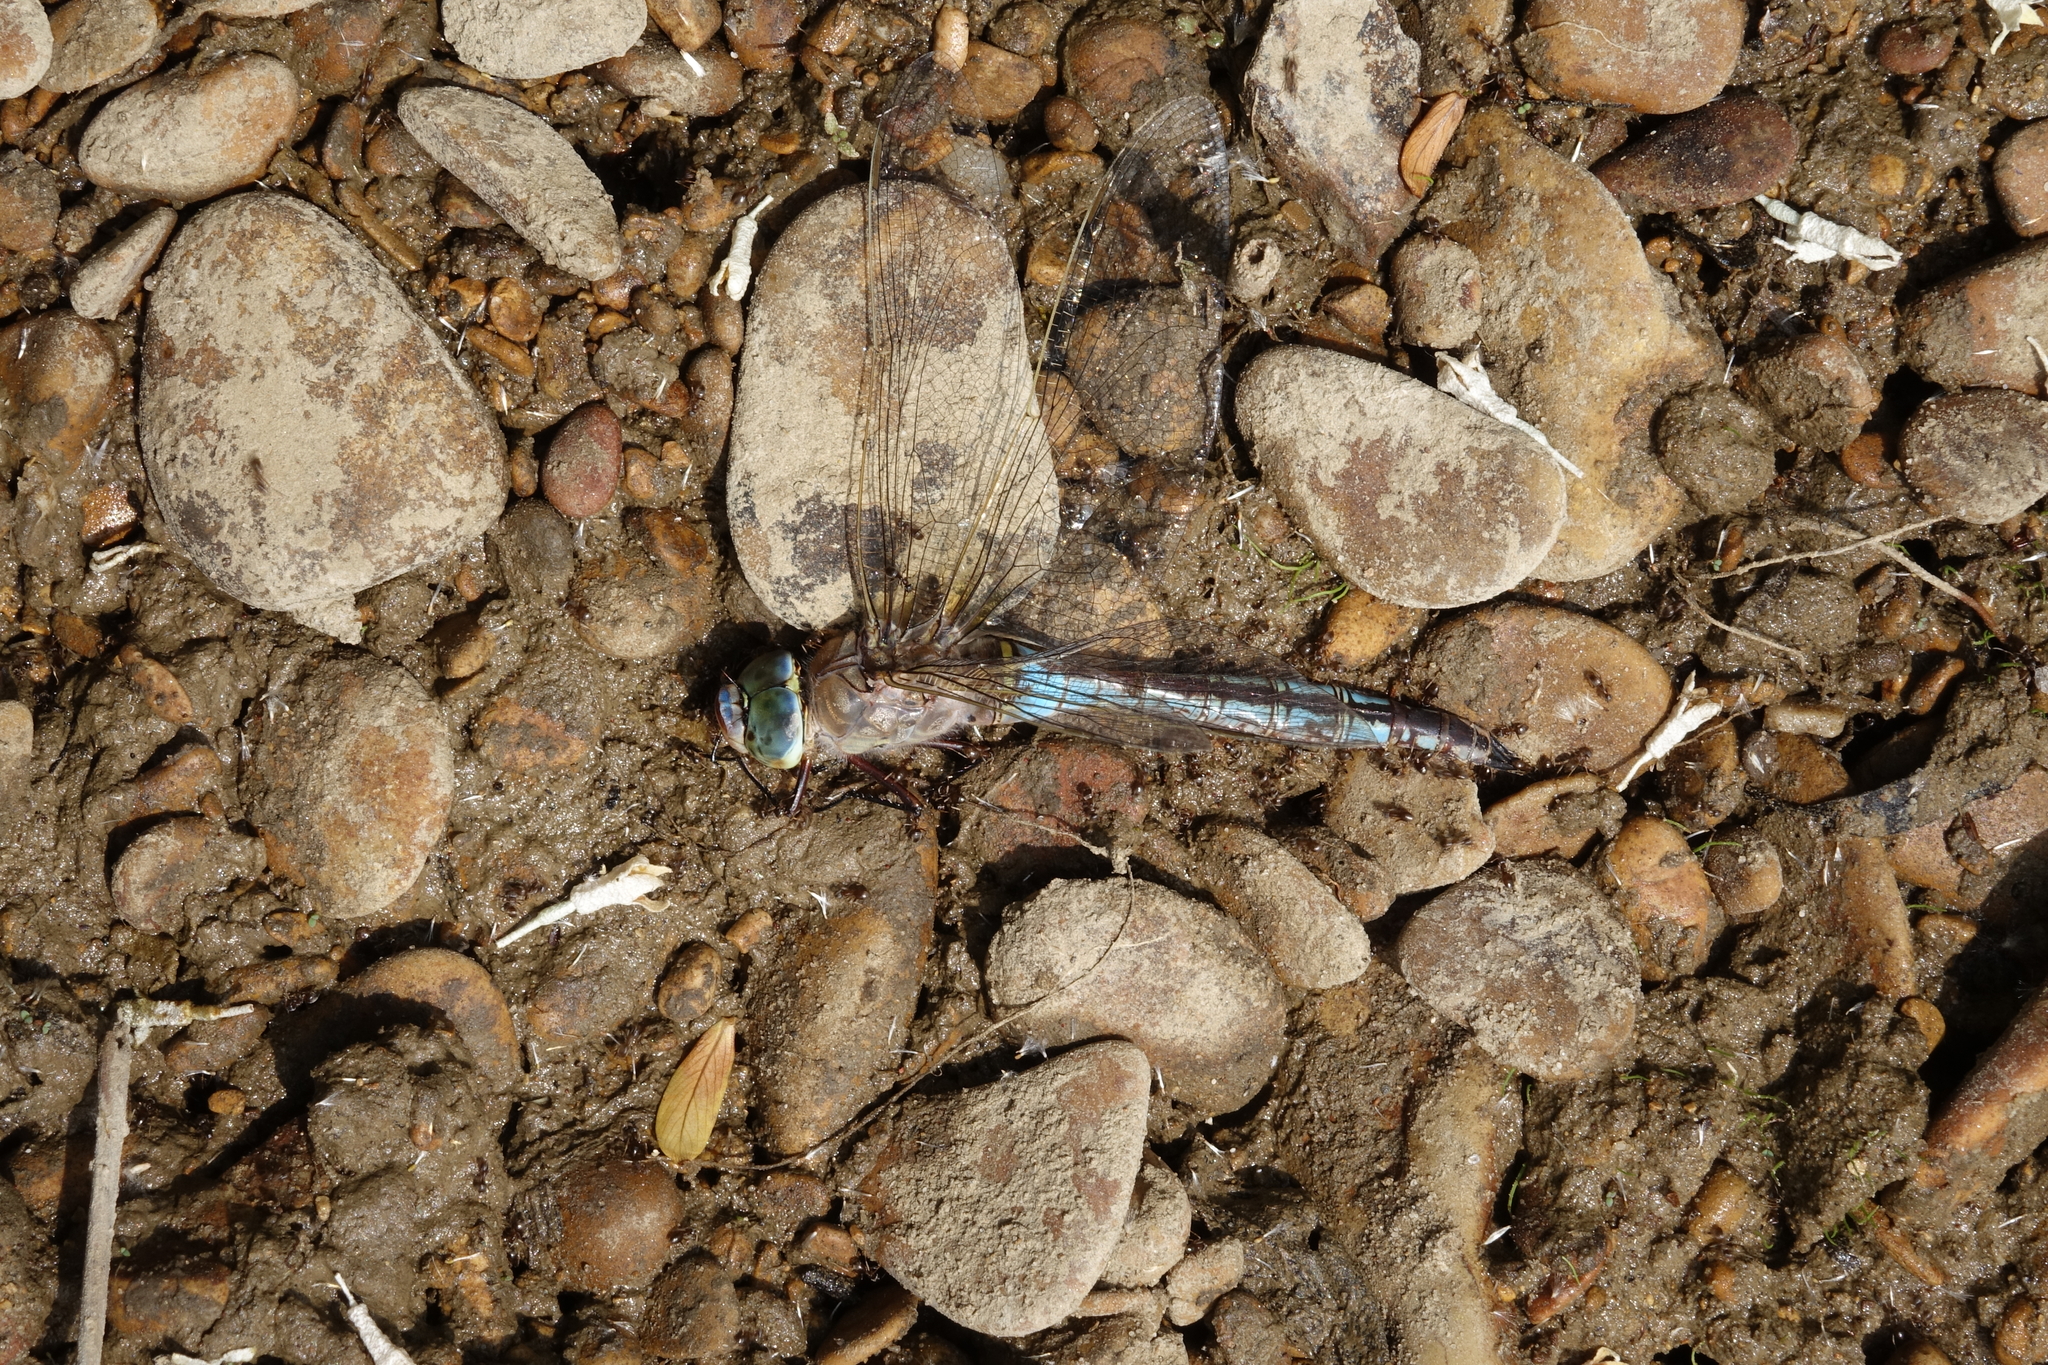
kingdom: Animalia
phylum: Arthropoda
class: Insecta
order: Odonata
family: Aeshnidae
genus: Anax
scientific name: Anax parthenope
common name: Lesser emperor
